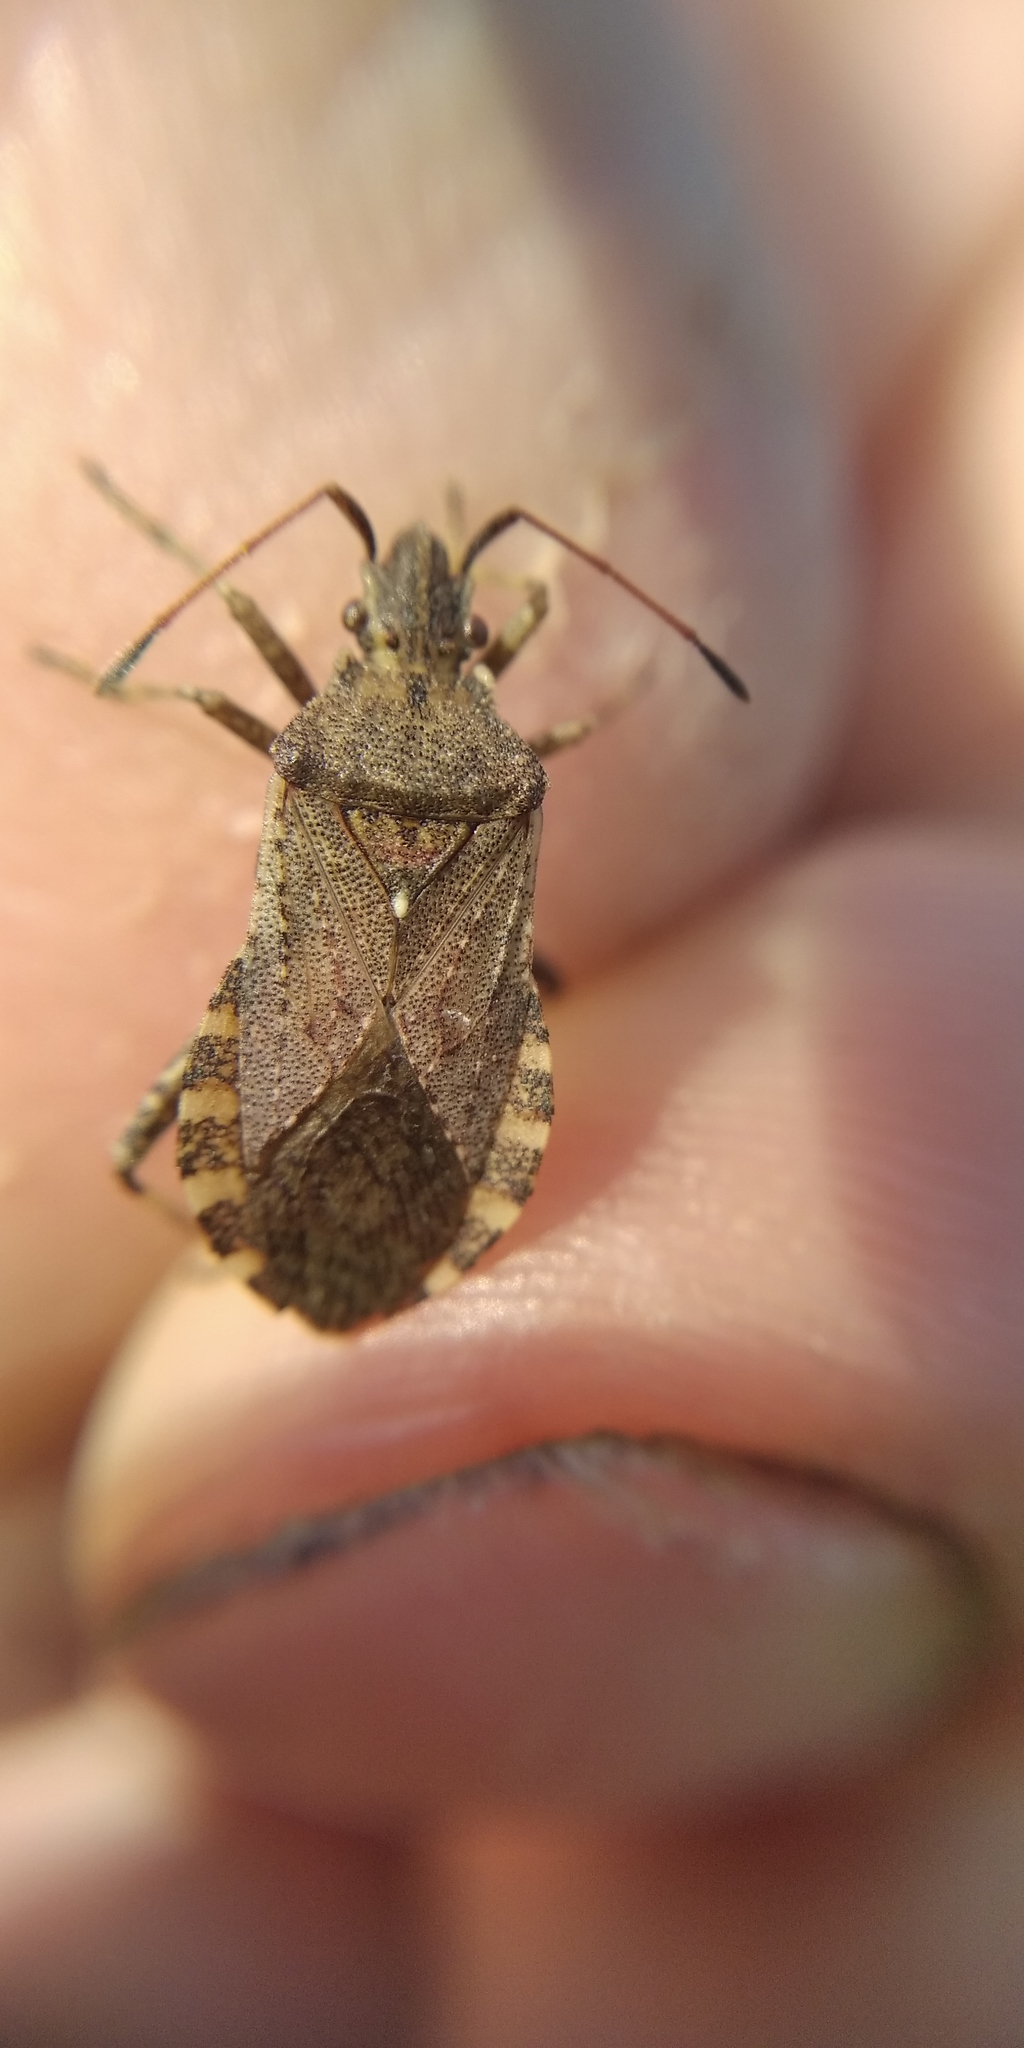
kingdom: Animalia
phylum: Arthropoda
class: Insecta
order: Hemiptera
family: Coreidae
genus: Ceraleptus
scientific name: Ceraleptus gracilicornis
